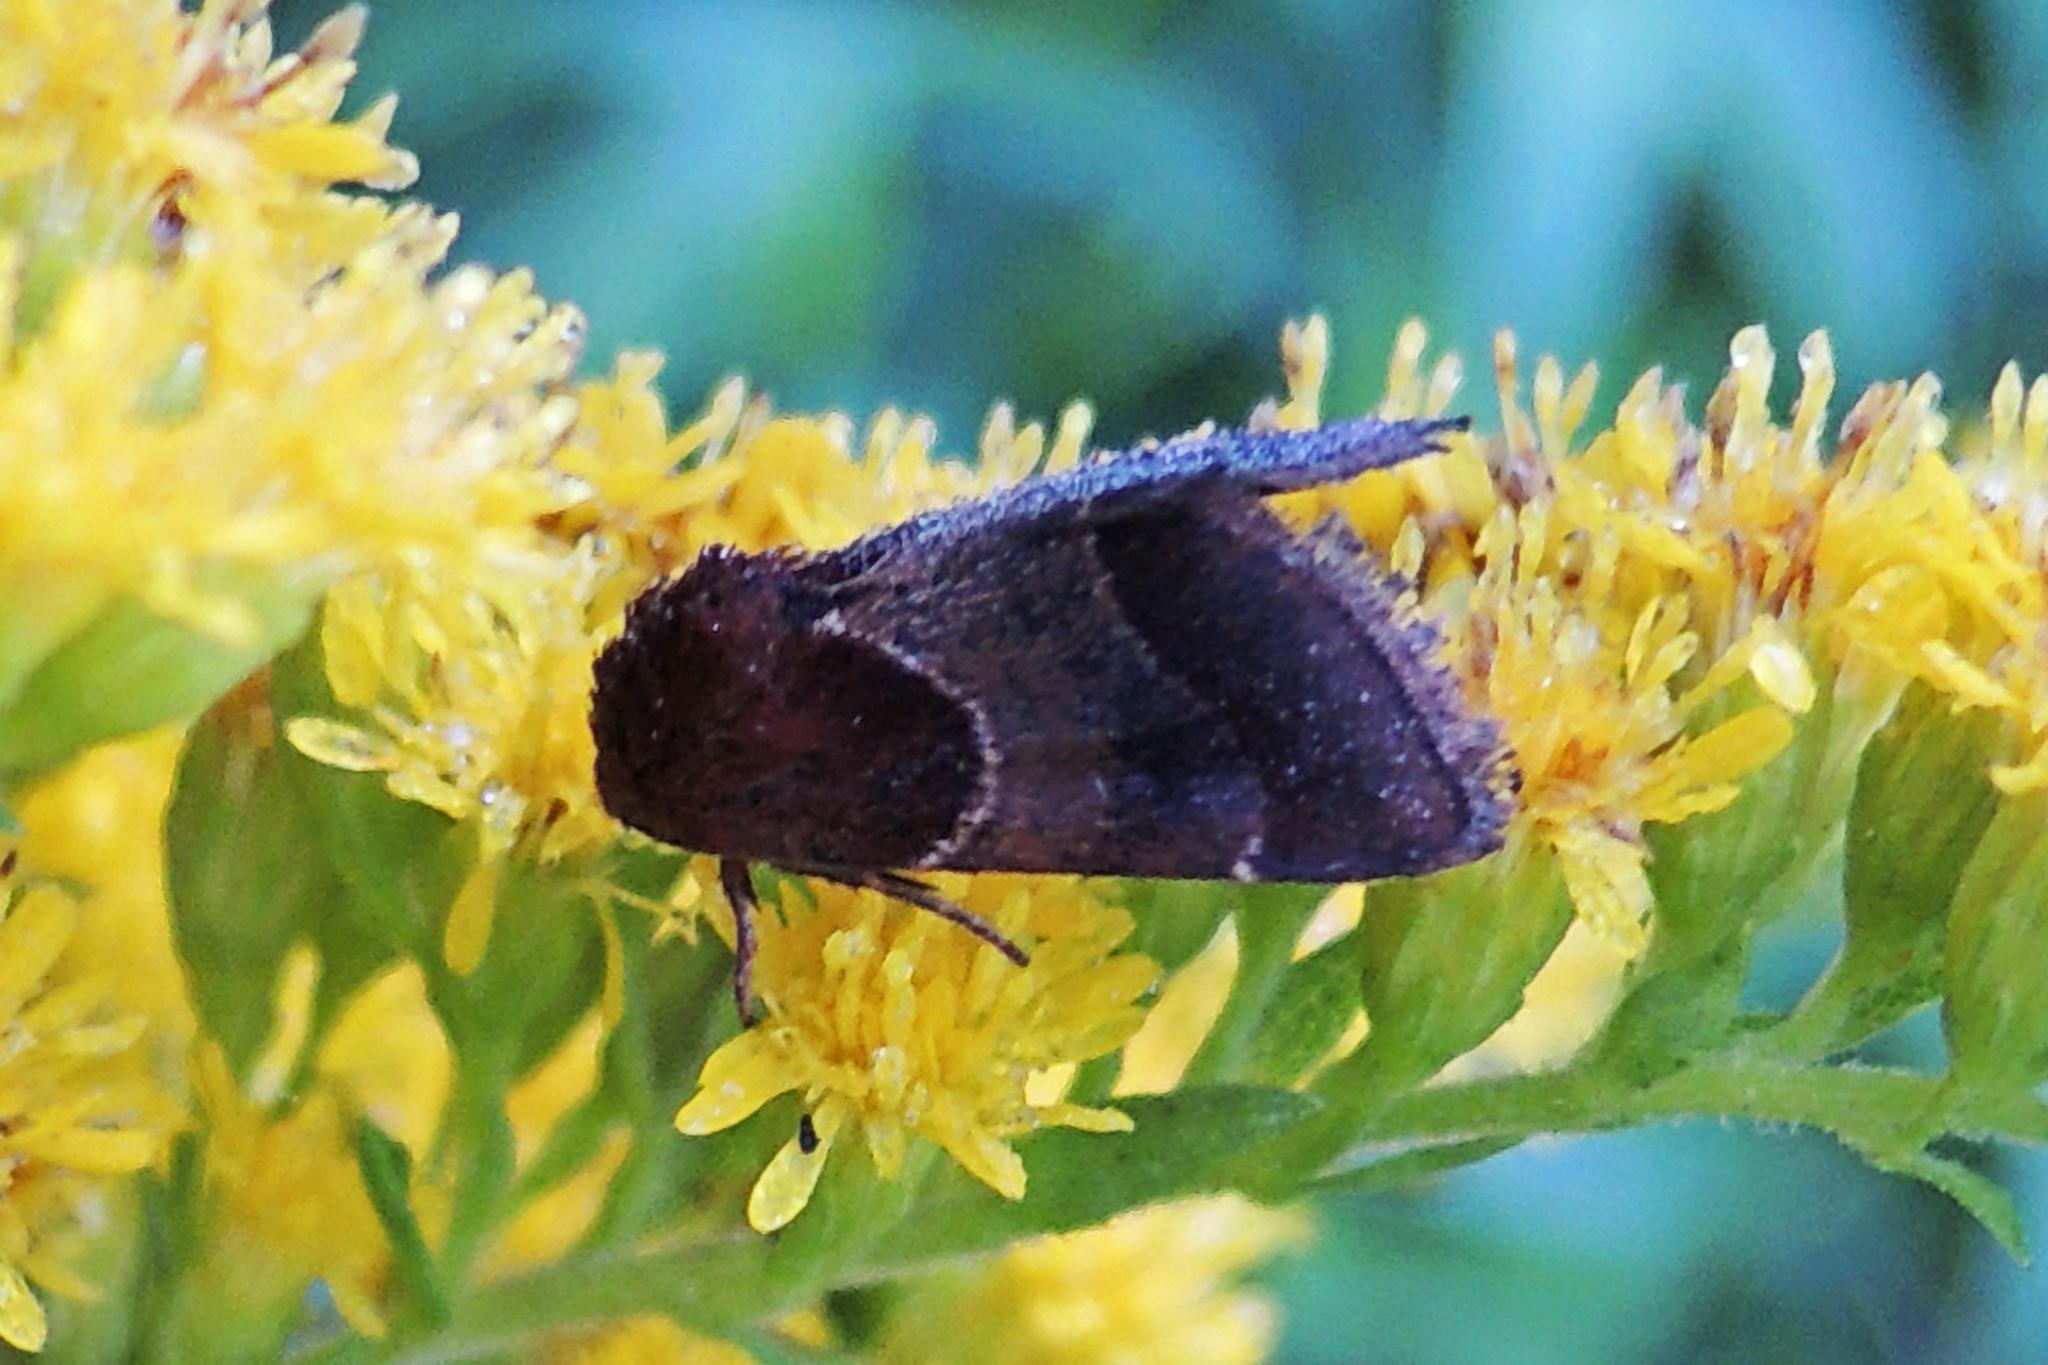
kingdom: Animalia
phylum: Arthropoda
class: Insecta
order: Lepidoptera
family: Noctuidae
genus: Schinia
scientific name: Schinia arcigera
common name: Arcigera flower moth
